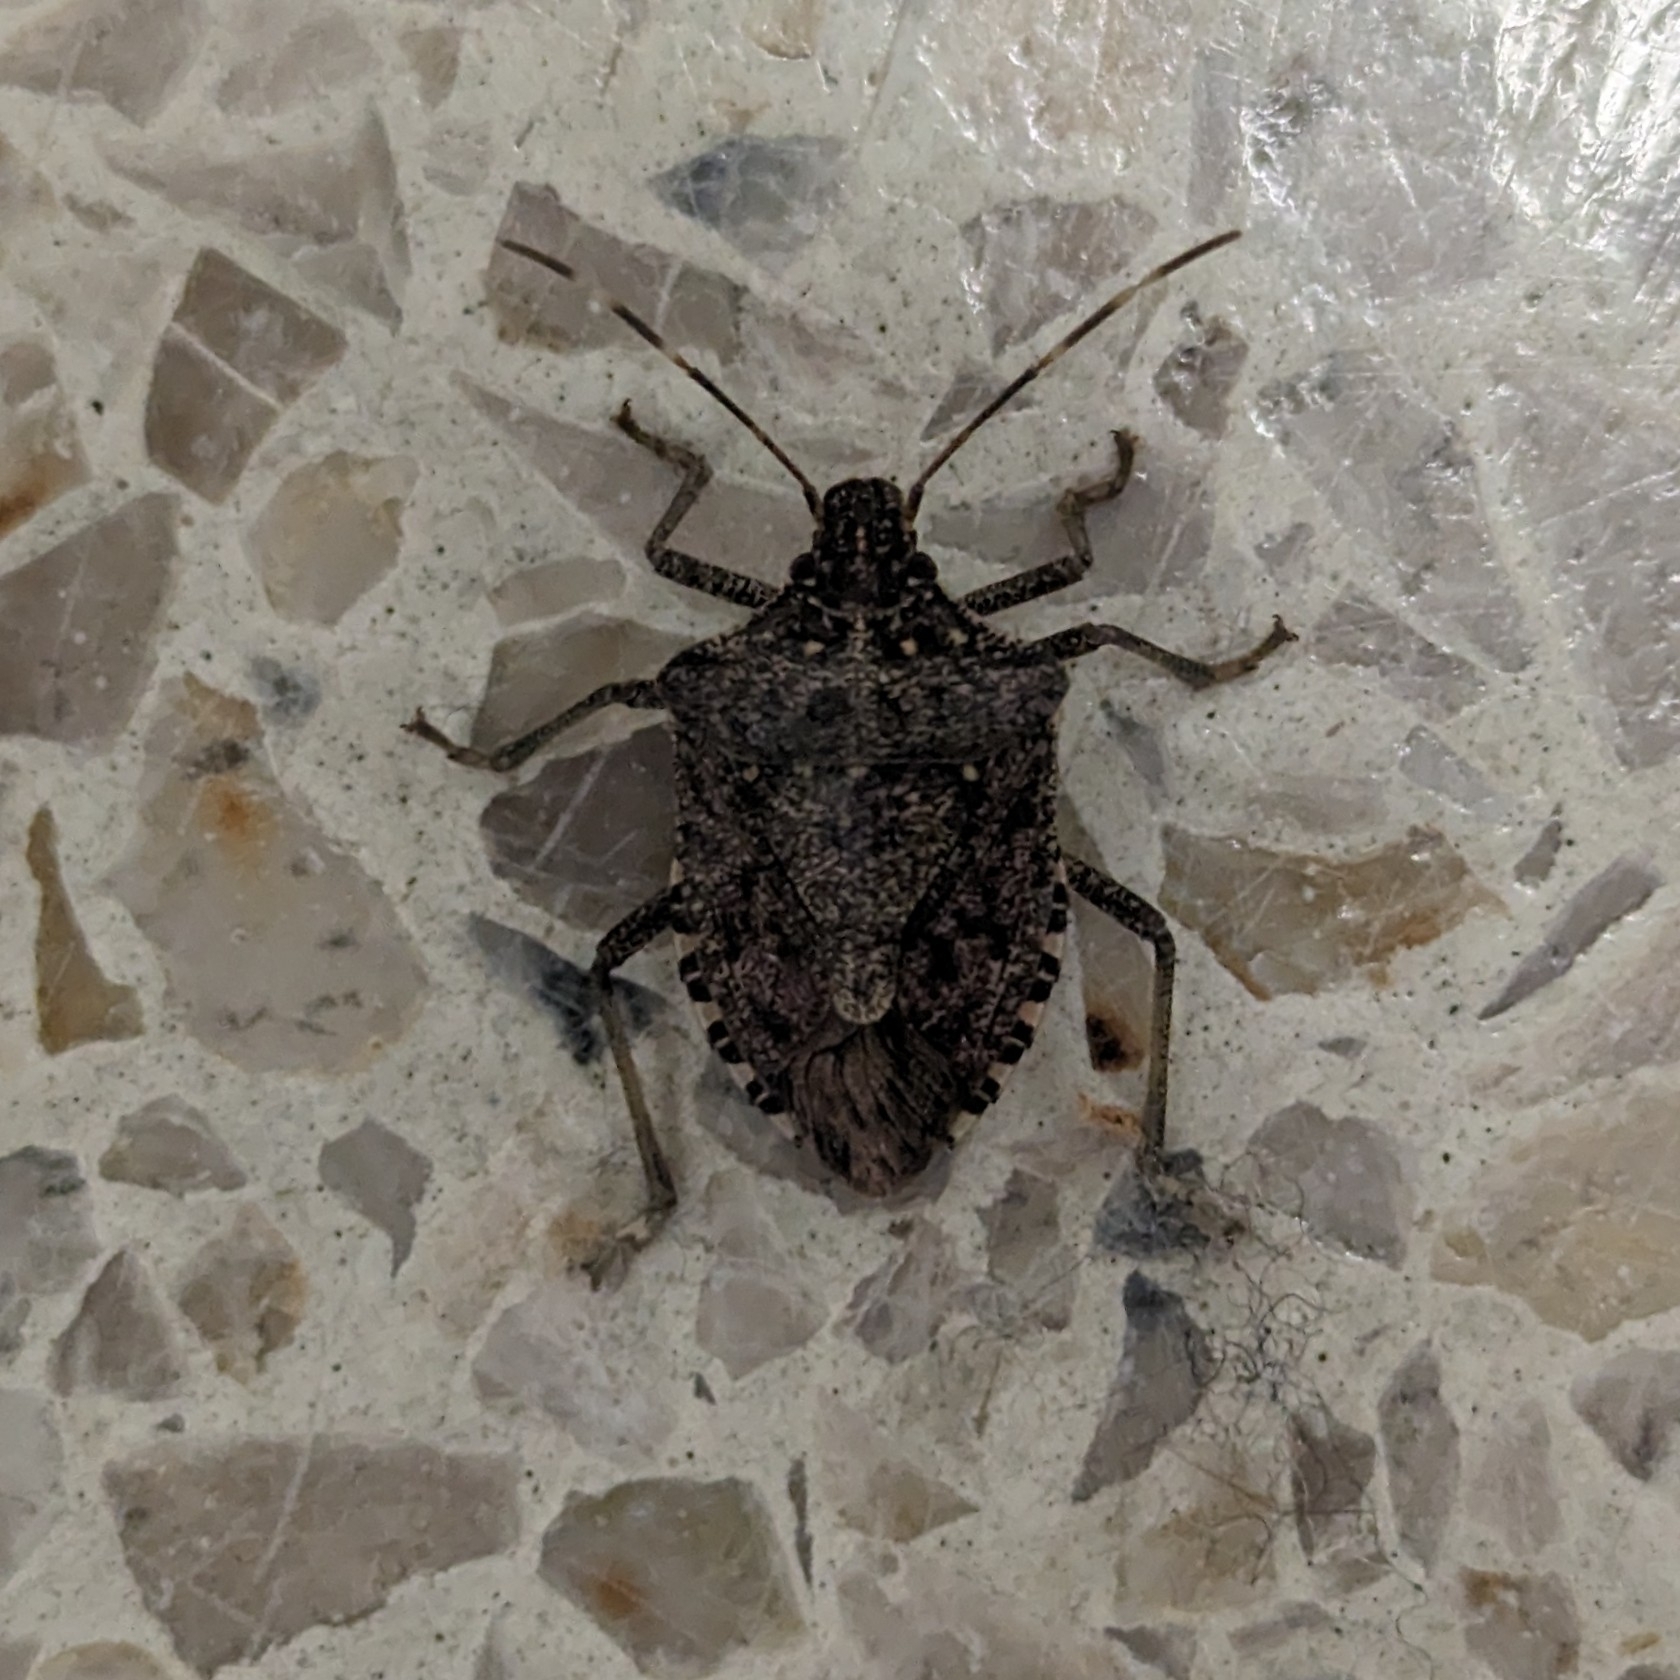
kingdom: Animalia
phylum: Arthropoda
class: Insecta
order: Hemiptera
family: Pentatomidae
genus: Halyomorpha
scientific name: Halyomorpha halys
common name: Brown marmorated stink bug
